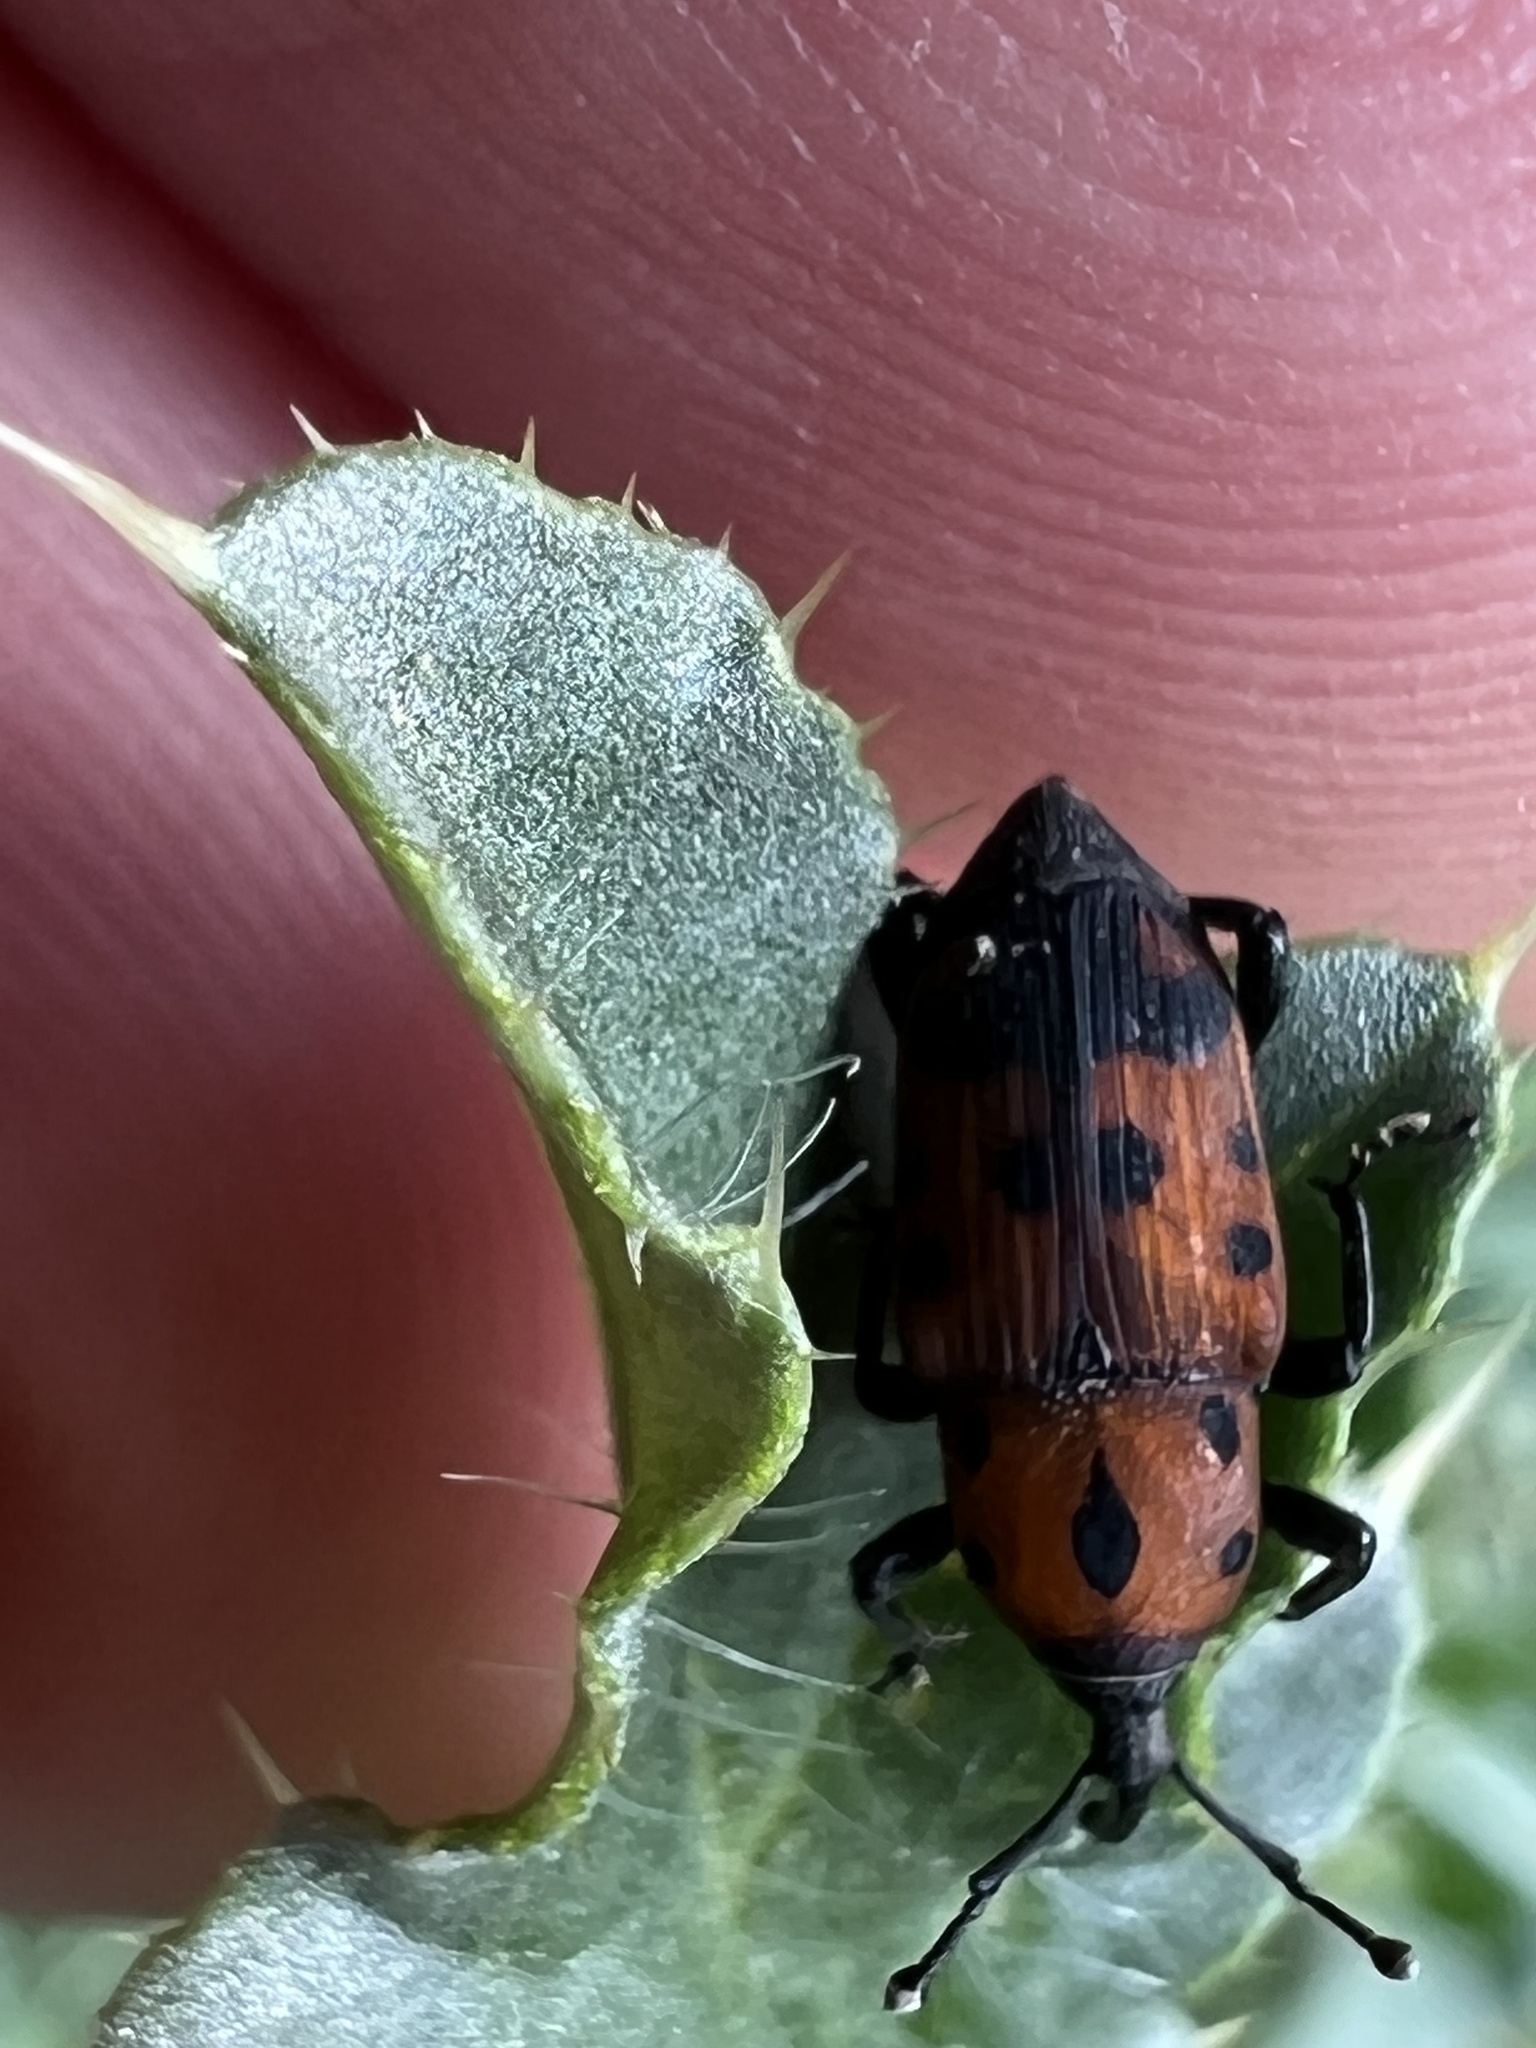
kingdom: Animalia
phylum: Arthropoda
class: Insecta
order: Coleoptera
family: Dryophthoridae
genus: Rhodobaenus
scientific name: Rhodobaenus quinquepunctatus
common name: Cocklebur weevil
